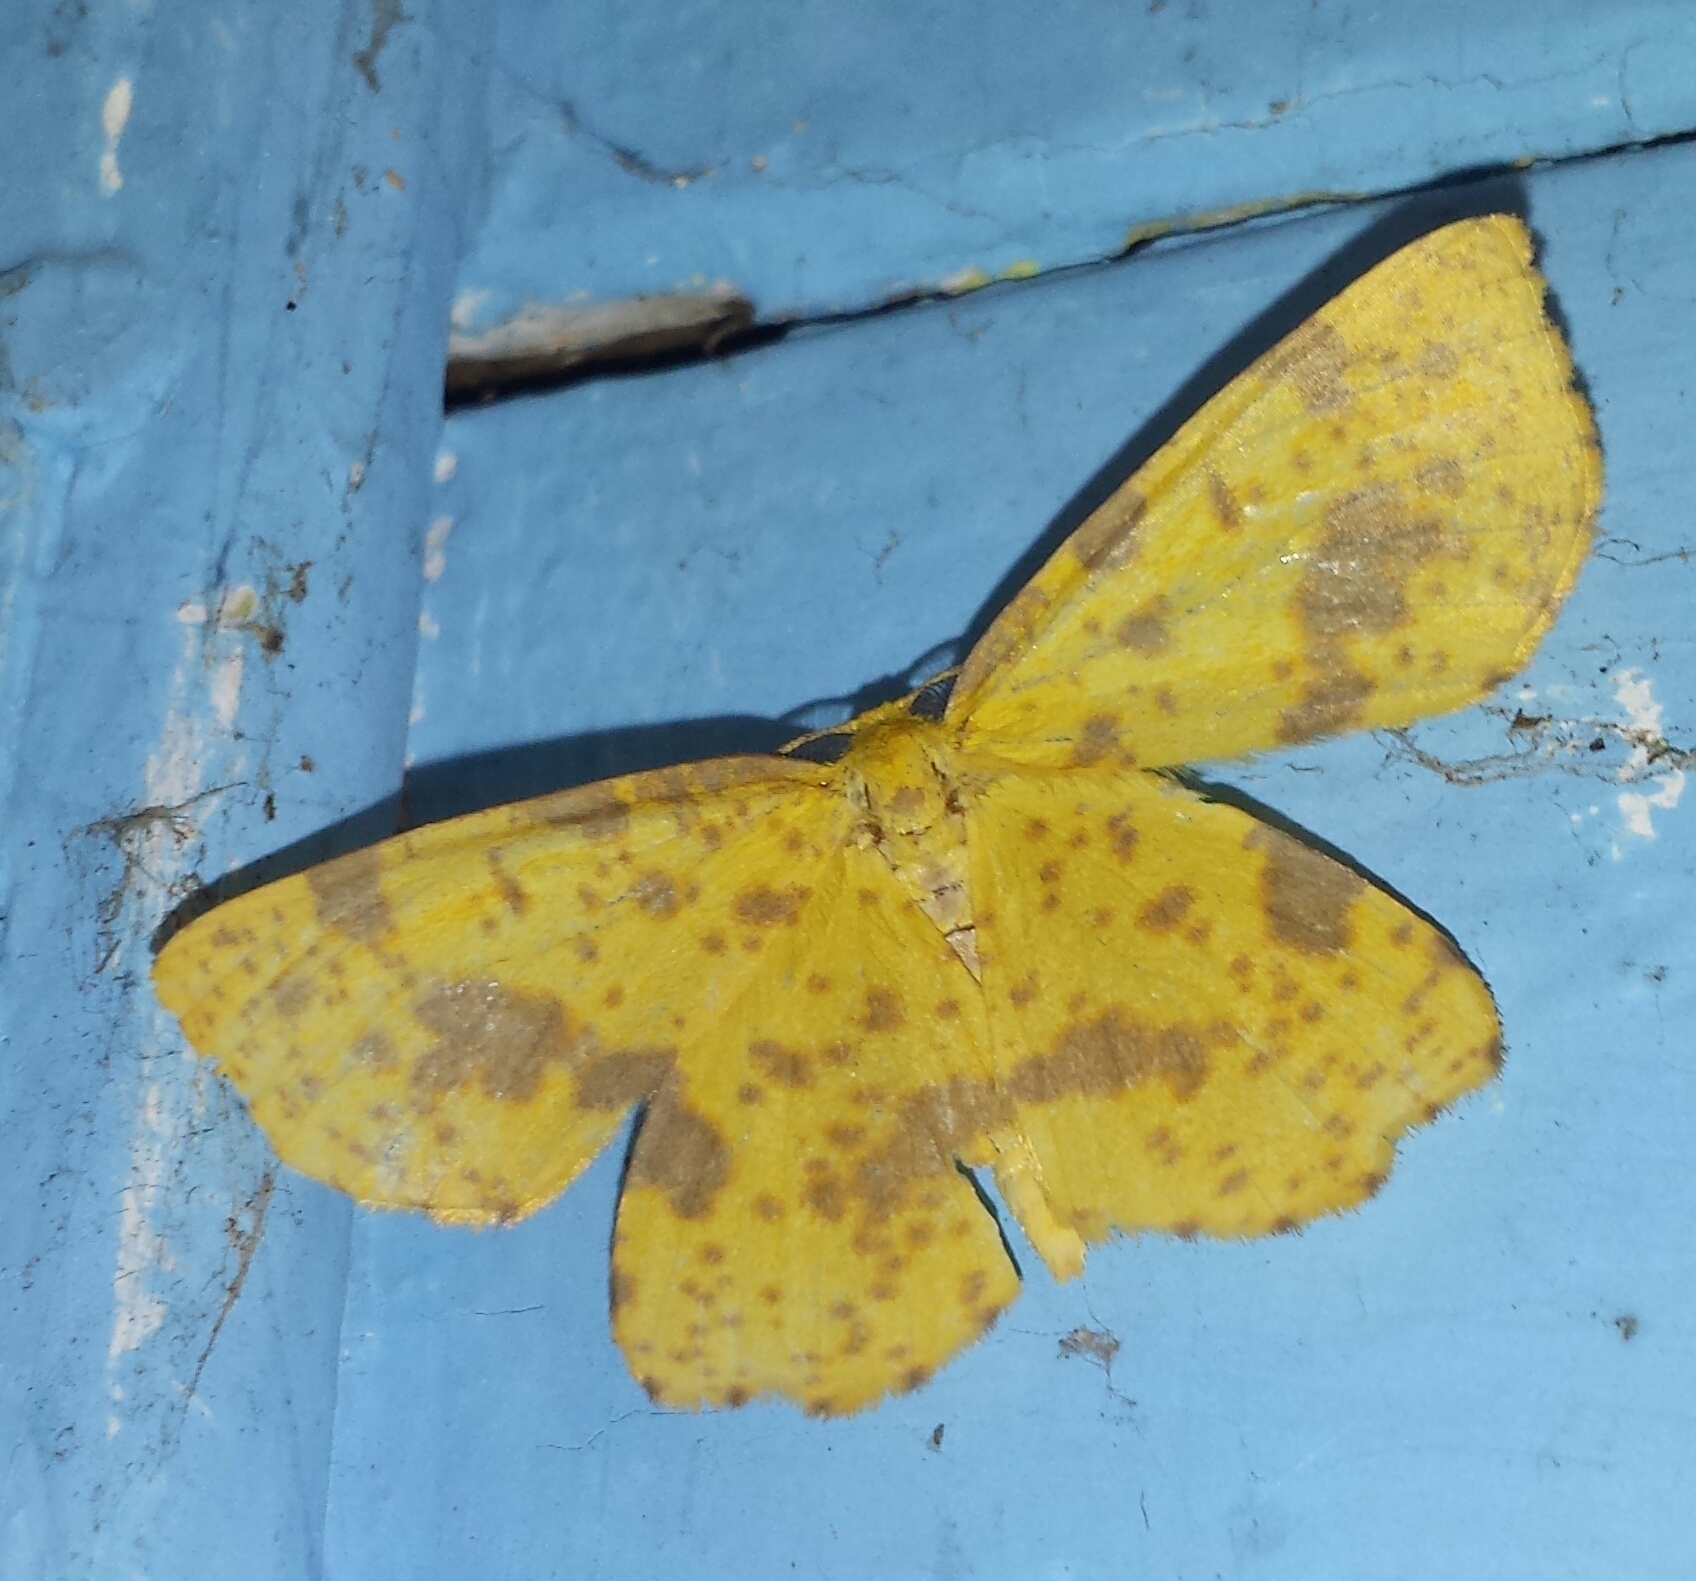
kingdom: Animalia
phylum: Arthropoda
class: Insecta
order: Lepidoptera
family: Geometridae
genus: Xanthotype
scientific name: Xanthotype
